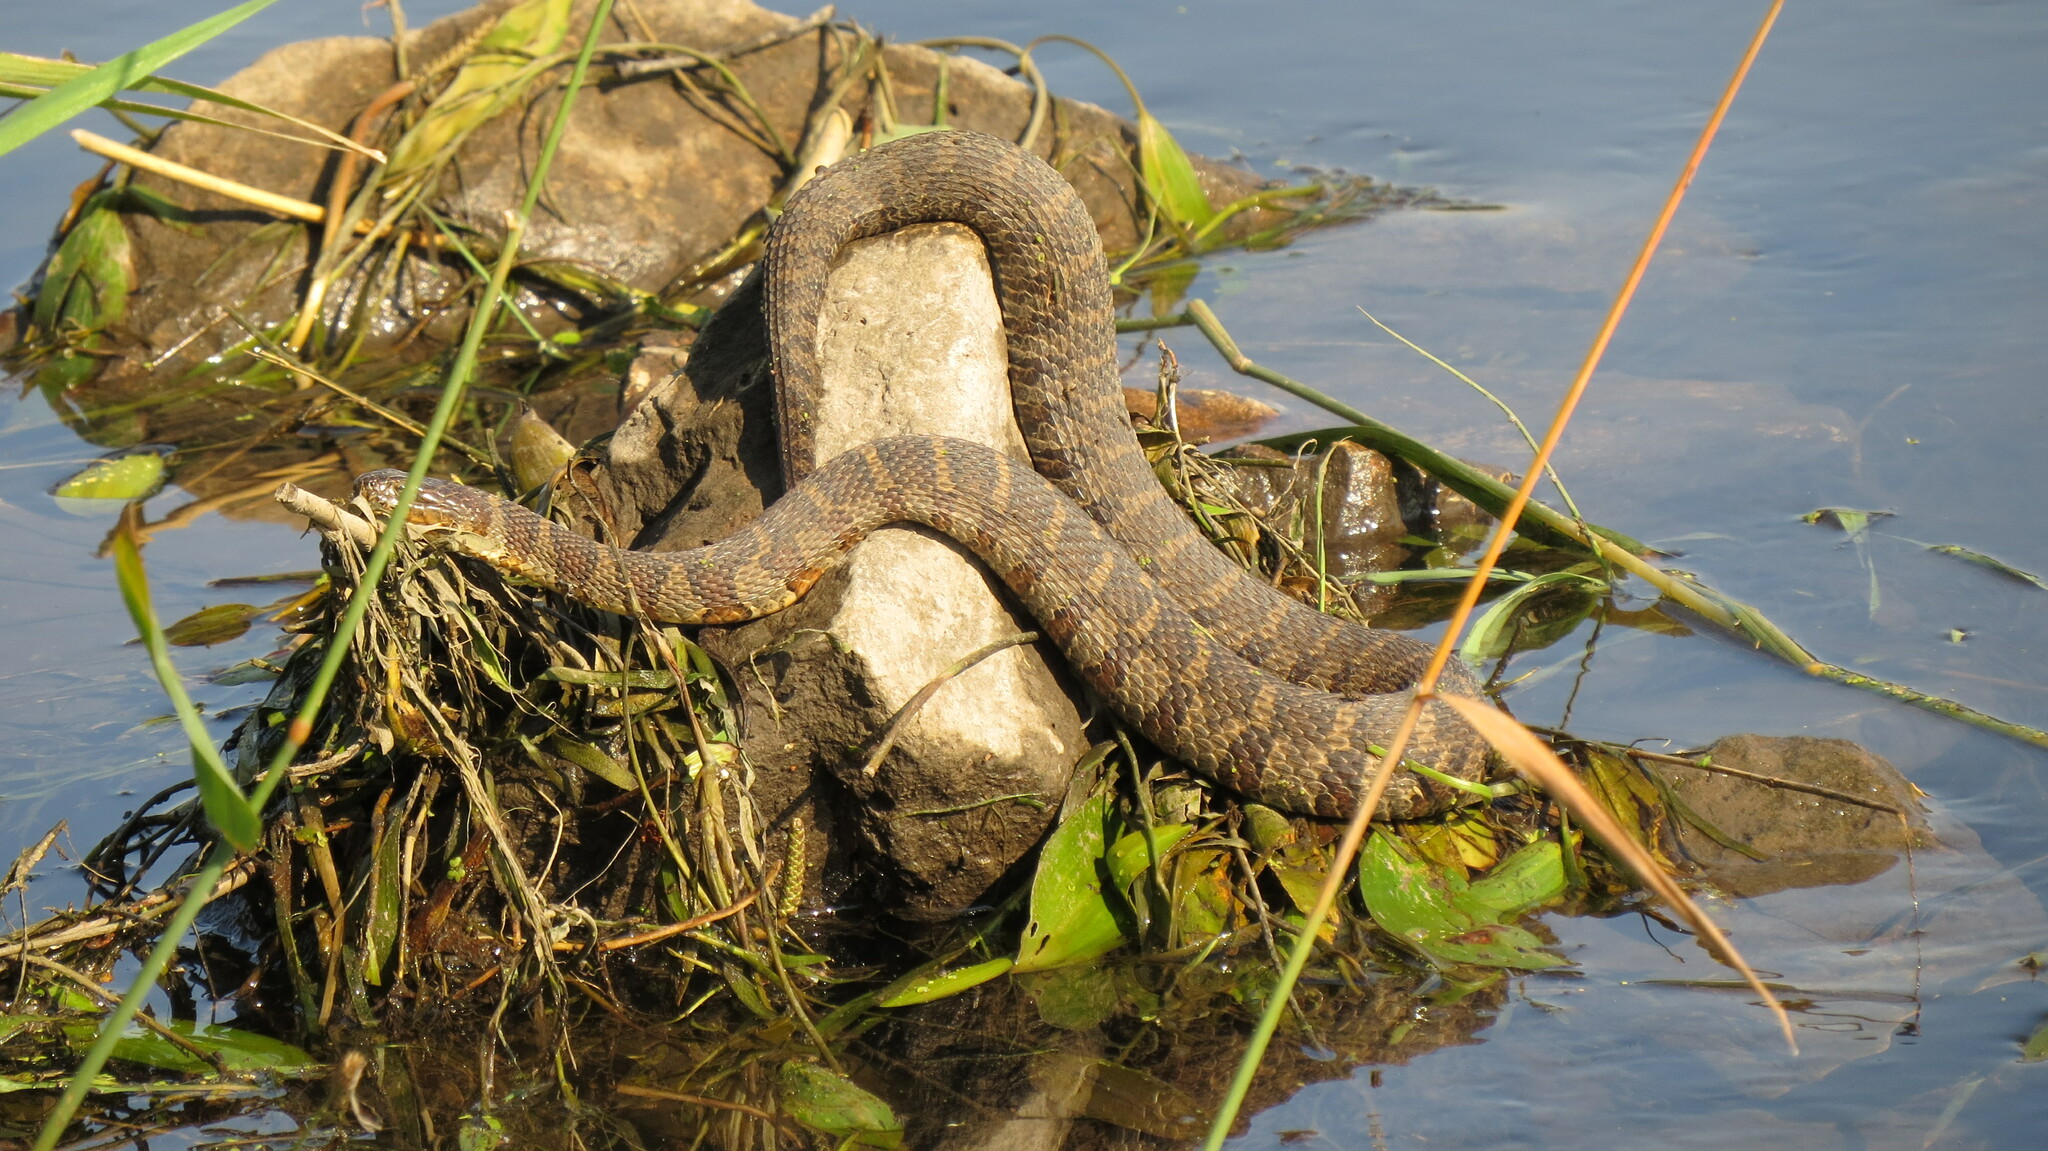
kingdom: Animalia
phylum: Chordata
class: Squamata
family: Colubridae
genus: Nerodia
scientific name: Nerodia sipedon
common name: Northern water snake
